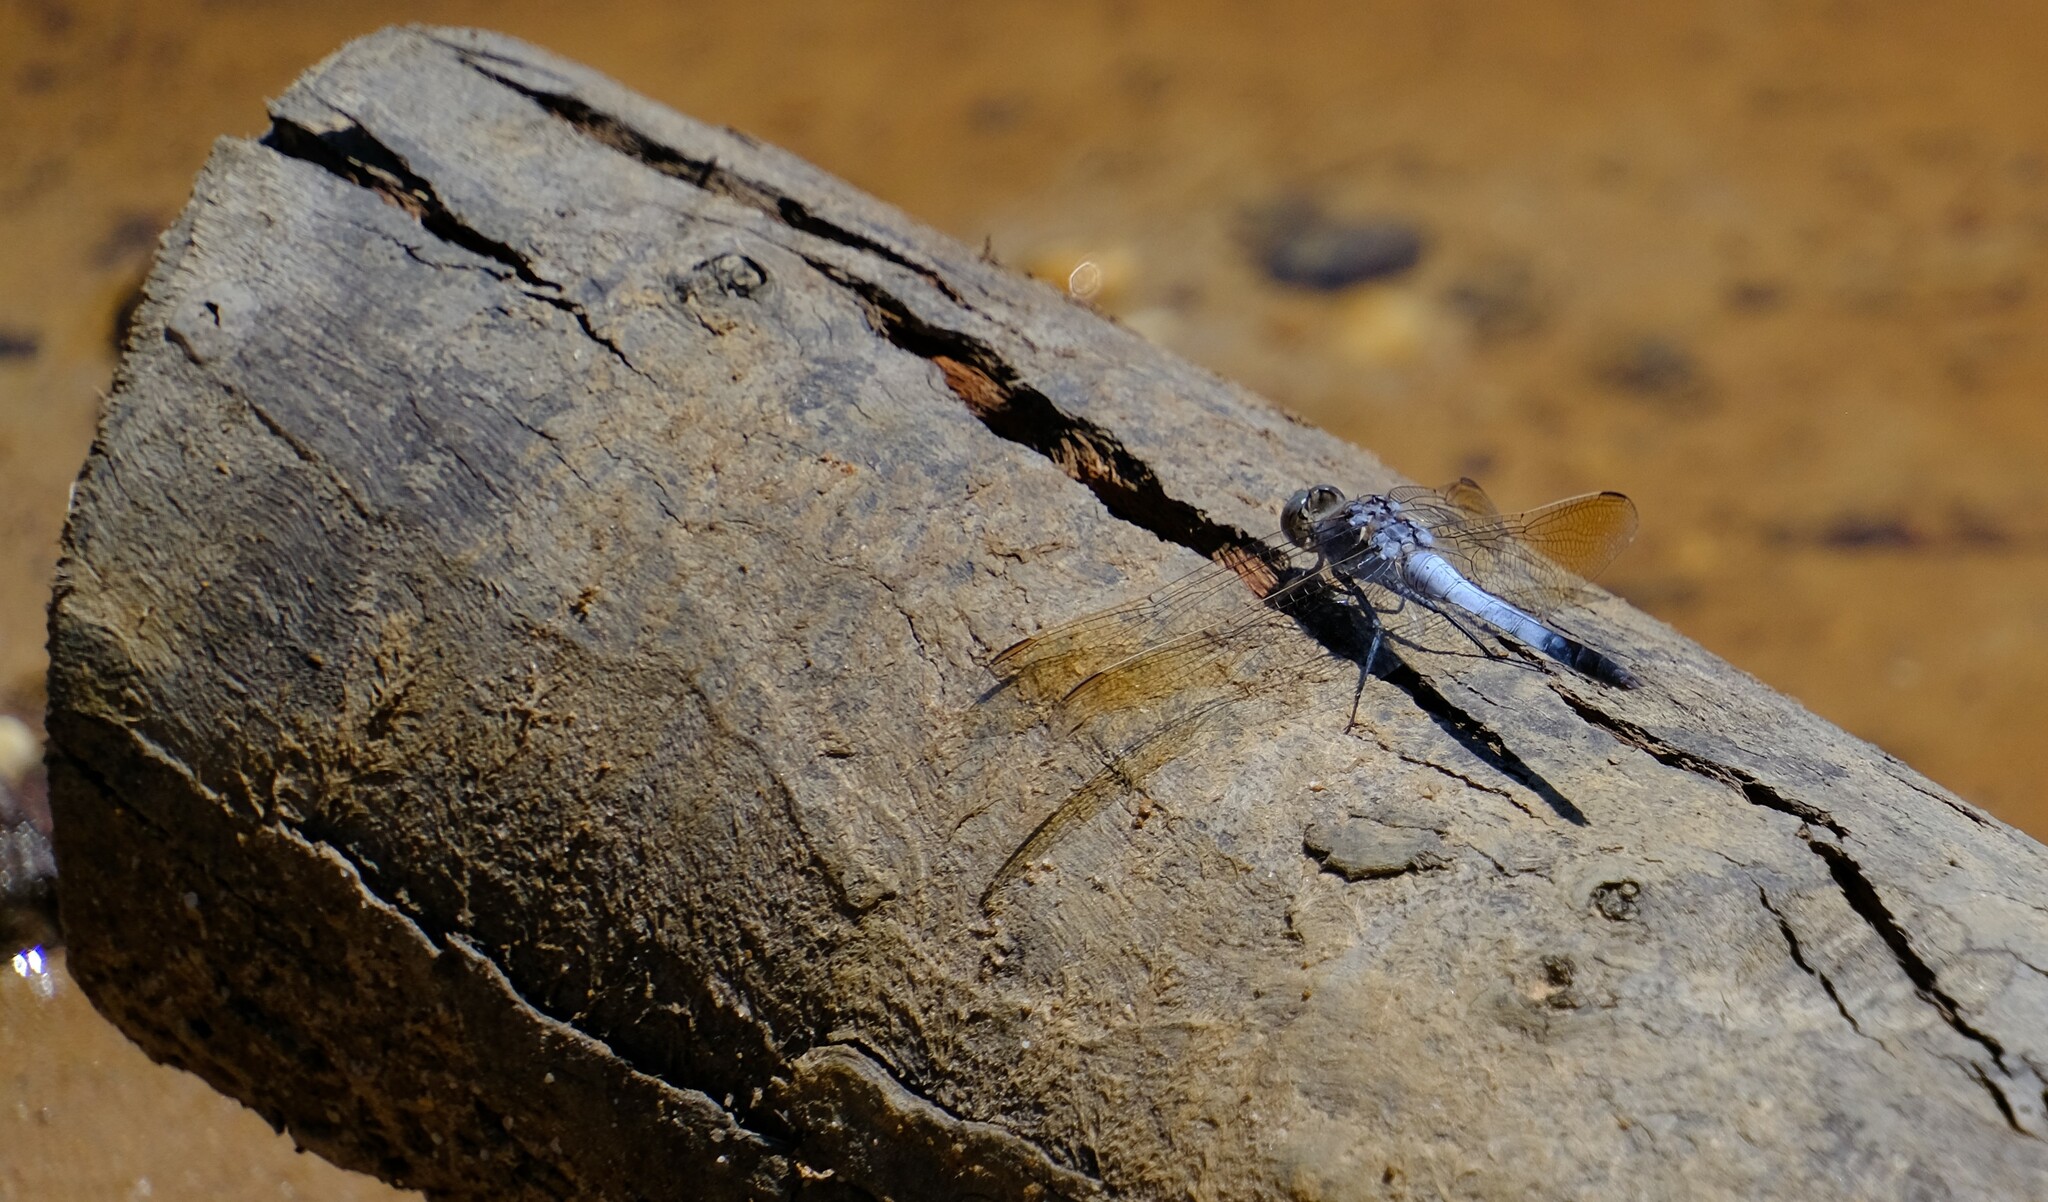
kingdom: Animalia
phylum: Arthropoda
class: Insecta
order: Odonata
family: Libellulidae
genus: Orthetrum
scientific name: Orthetrum caledonicum
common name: Blue skimmer
